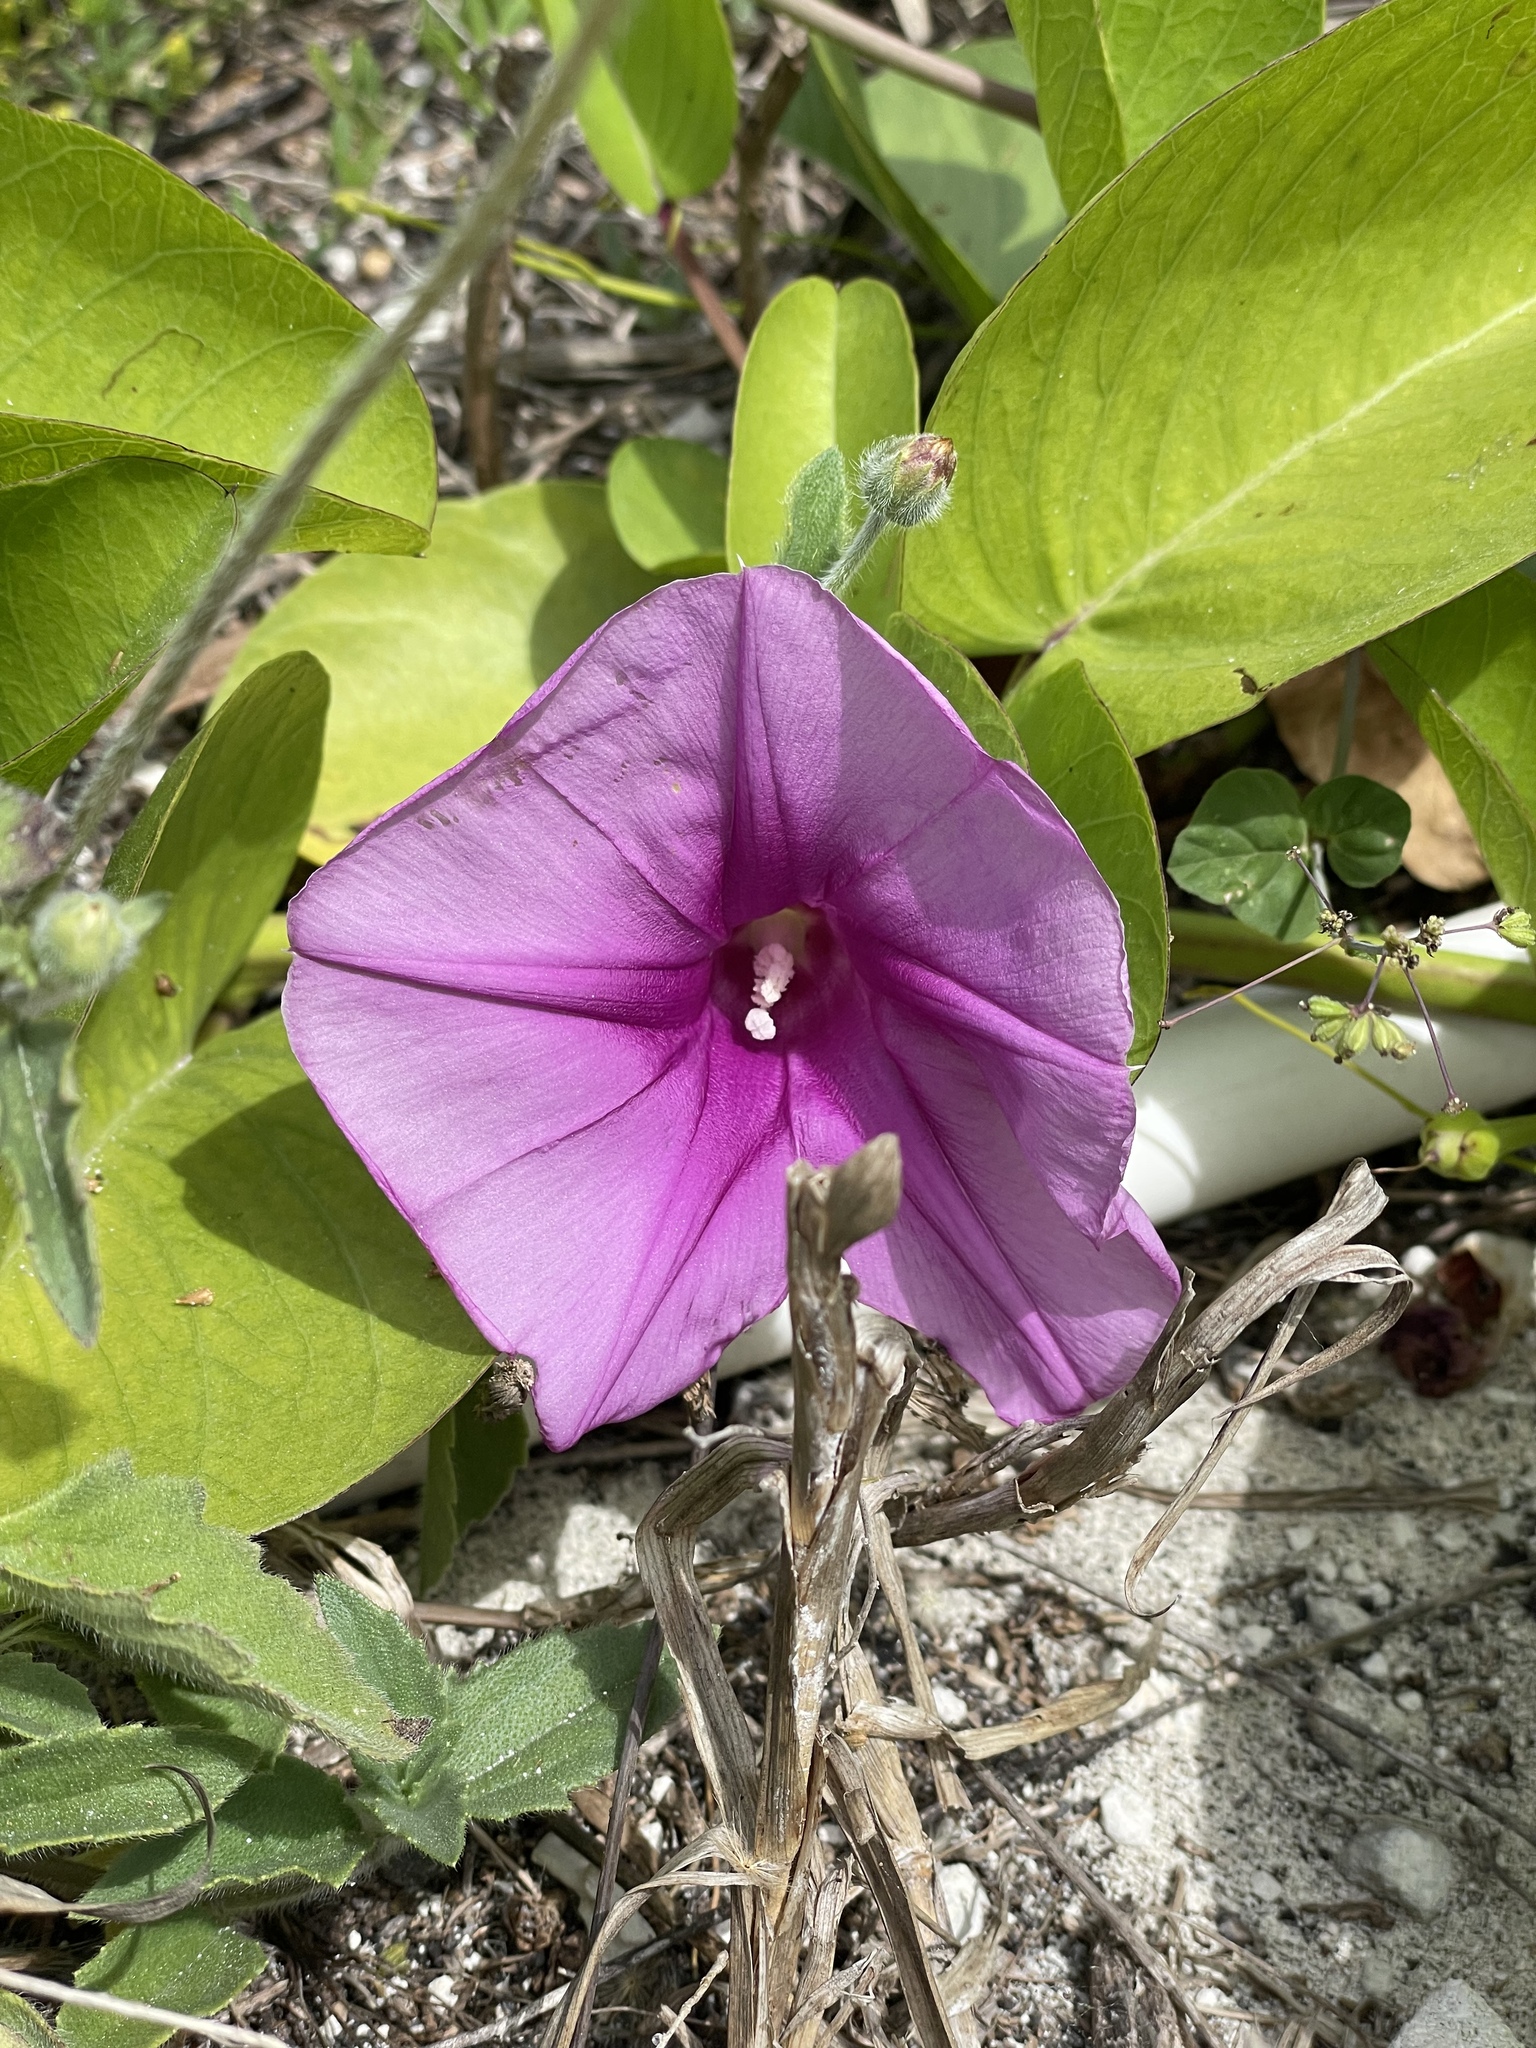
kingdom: Plantae
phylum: Tracheophyta
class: Magnoliopsida
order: Solanales
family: Convolvulaceae
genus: Ipomoea
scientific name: Ipomoea pes-caprae
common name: Beach morning glory
